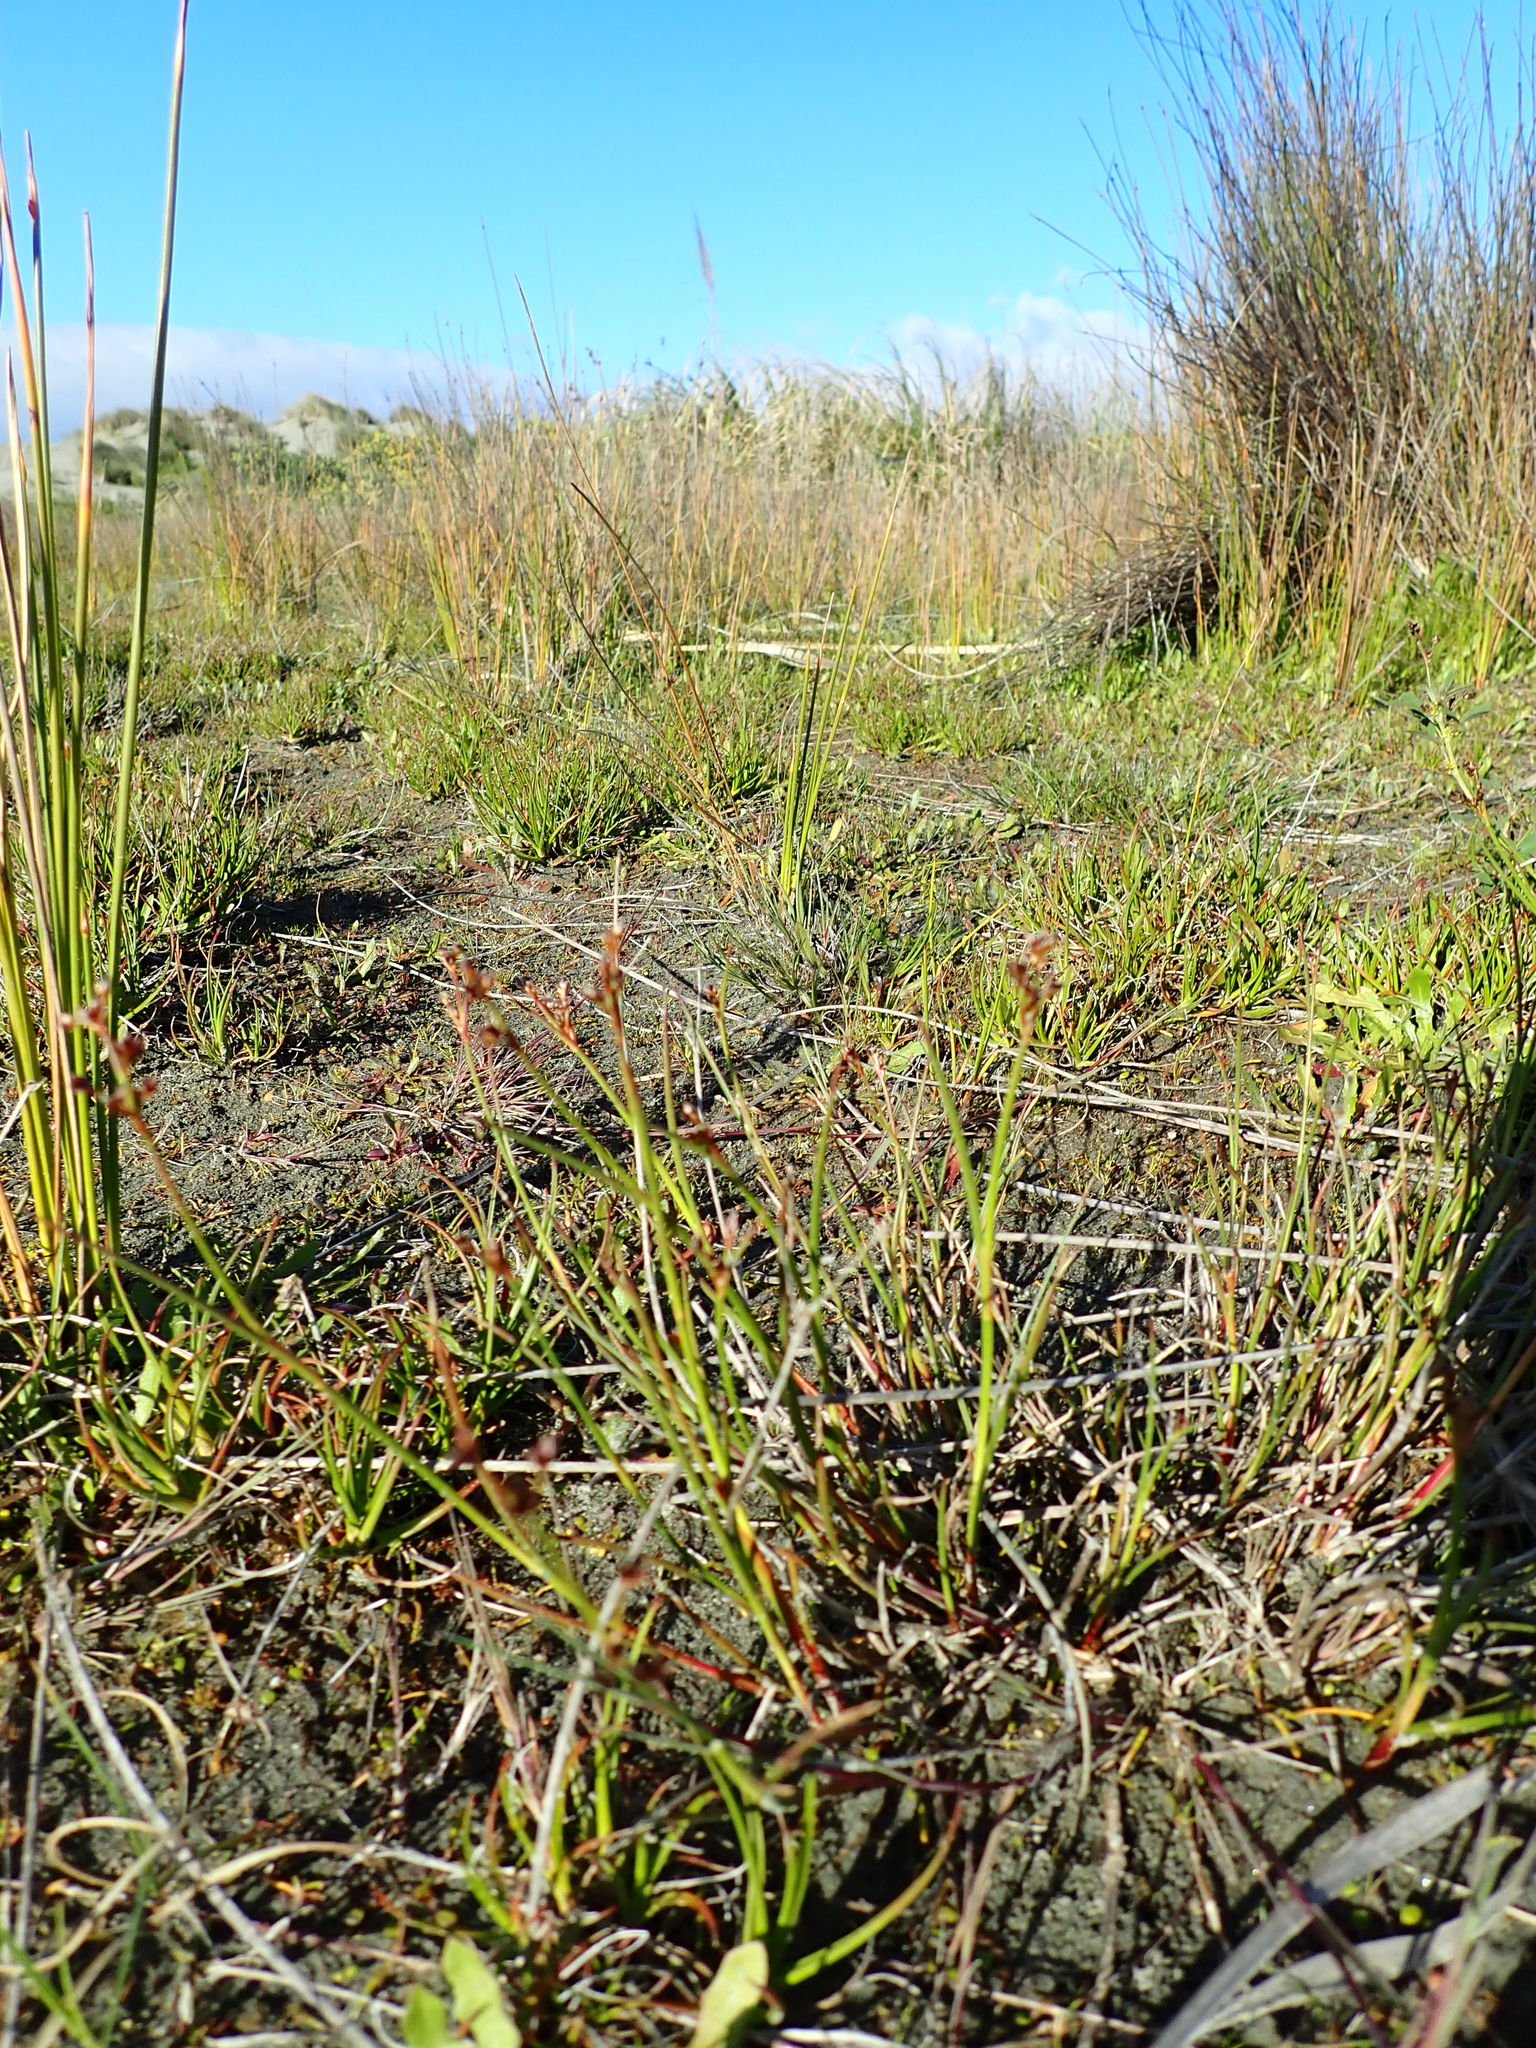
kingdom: Plantae
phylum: Tracheophyta
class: Liliopsida
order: Poales
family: Juncaceae
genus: Juncus
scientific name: Juncus articulatus
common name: Jointed rush
